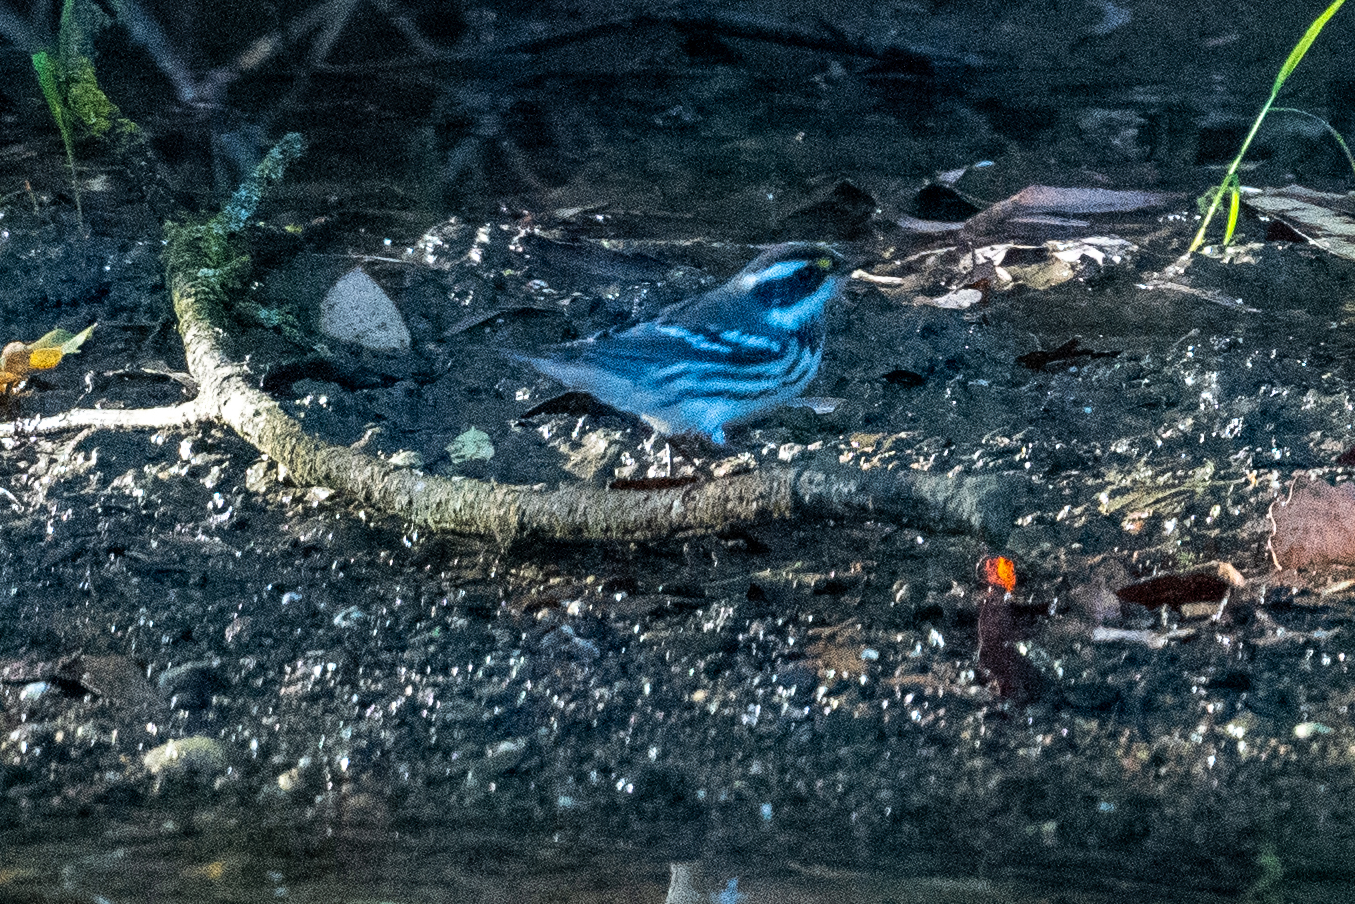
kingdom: Animalia
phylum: Chordata
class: Aves
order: Passeriformes
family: Parulidae
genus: Setophaga
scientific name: Setophaga nigrescens
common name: Black-throated gray warbler
